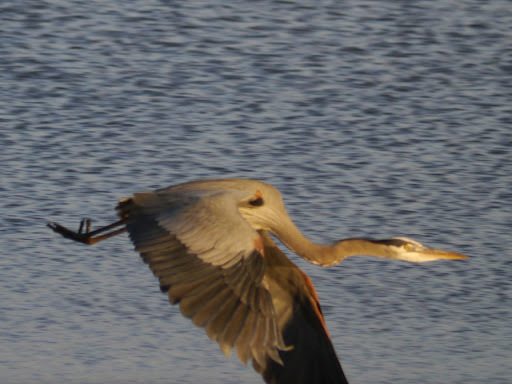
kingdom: Animalia
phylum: Chordata
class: Aves
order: Pelecaniformes
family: Ardeidae
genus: Ardea
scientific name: Ardea herodias
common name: Great blue heron
